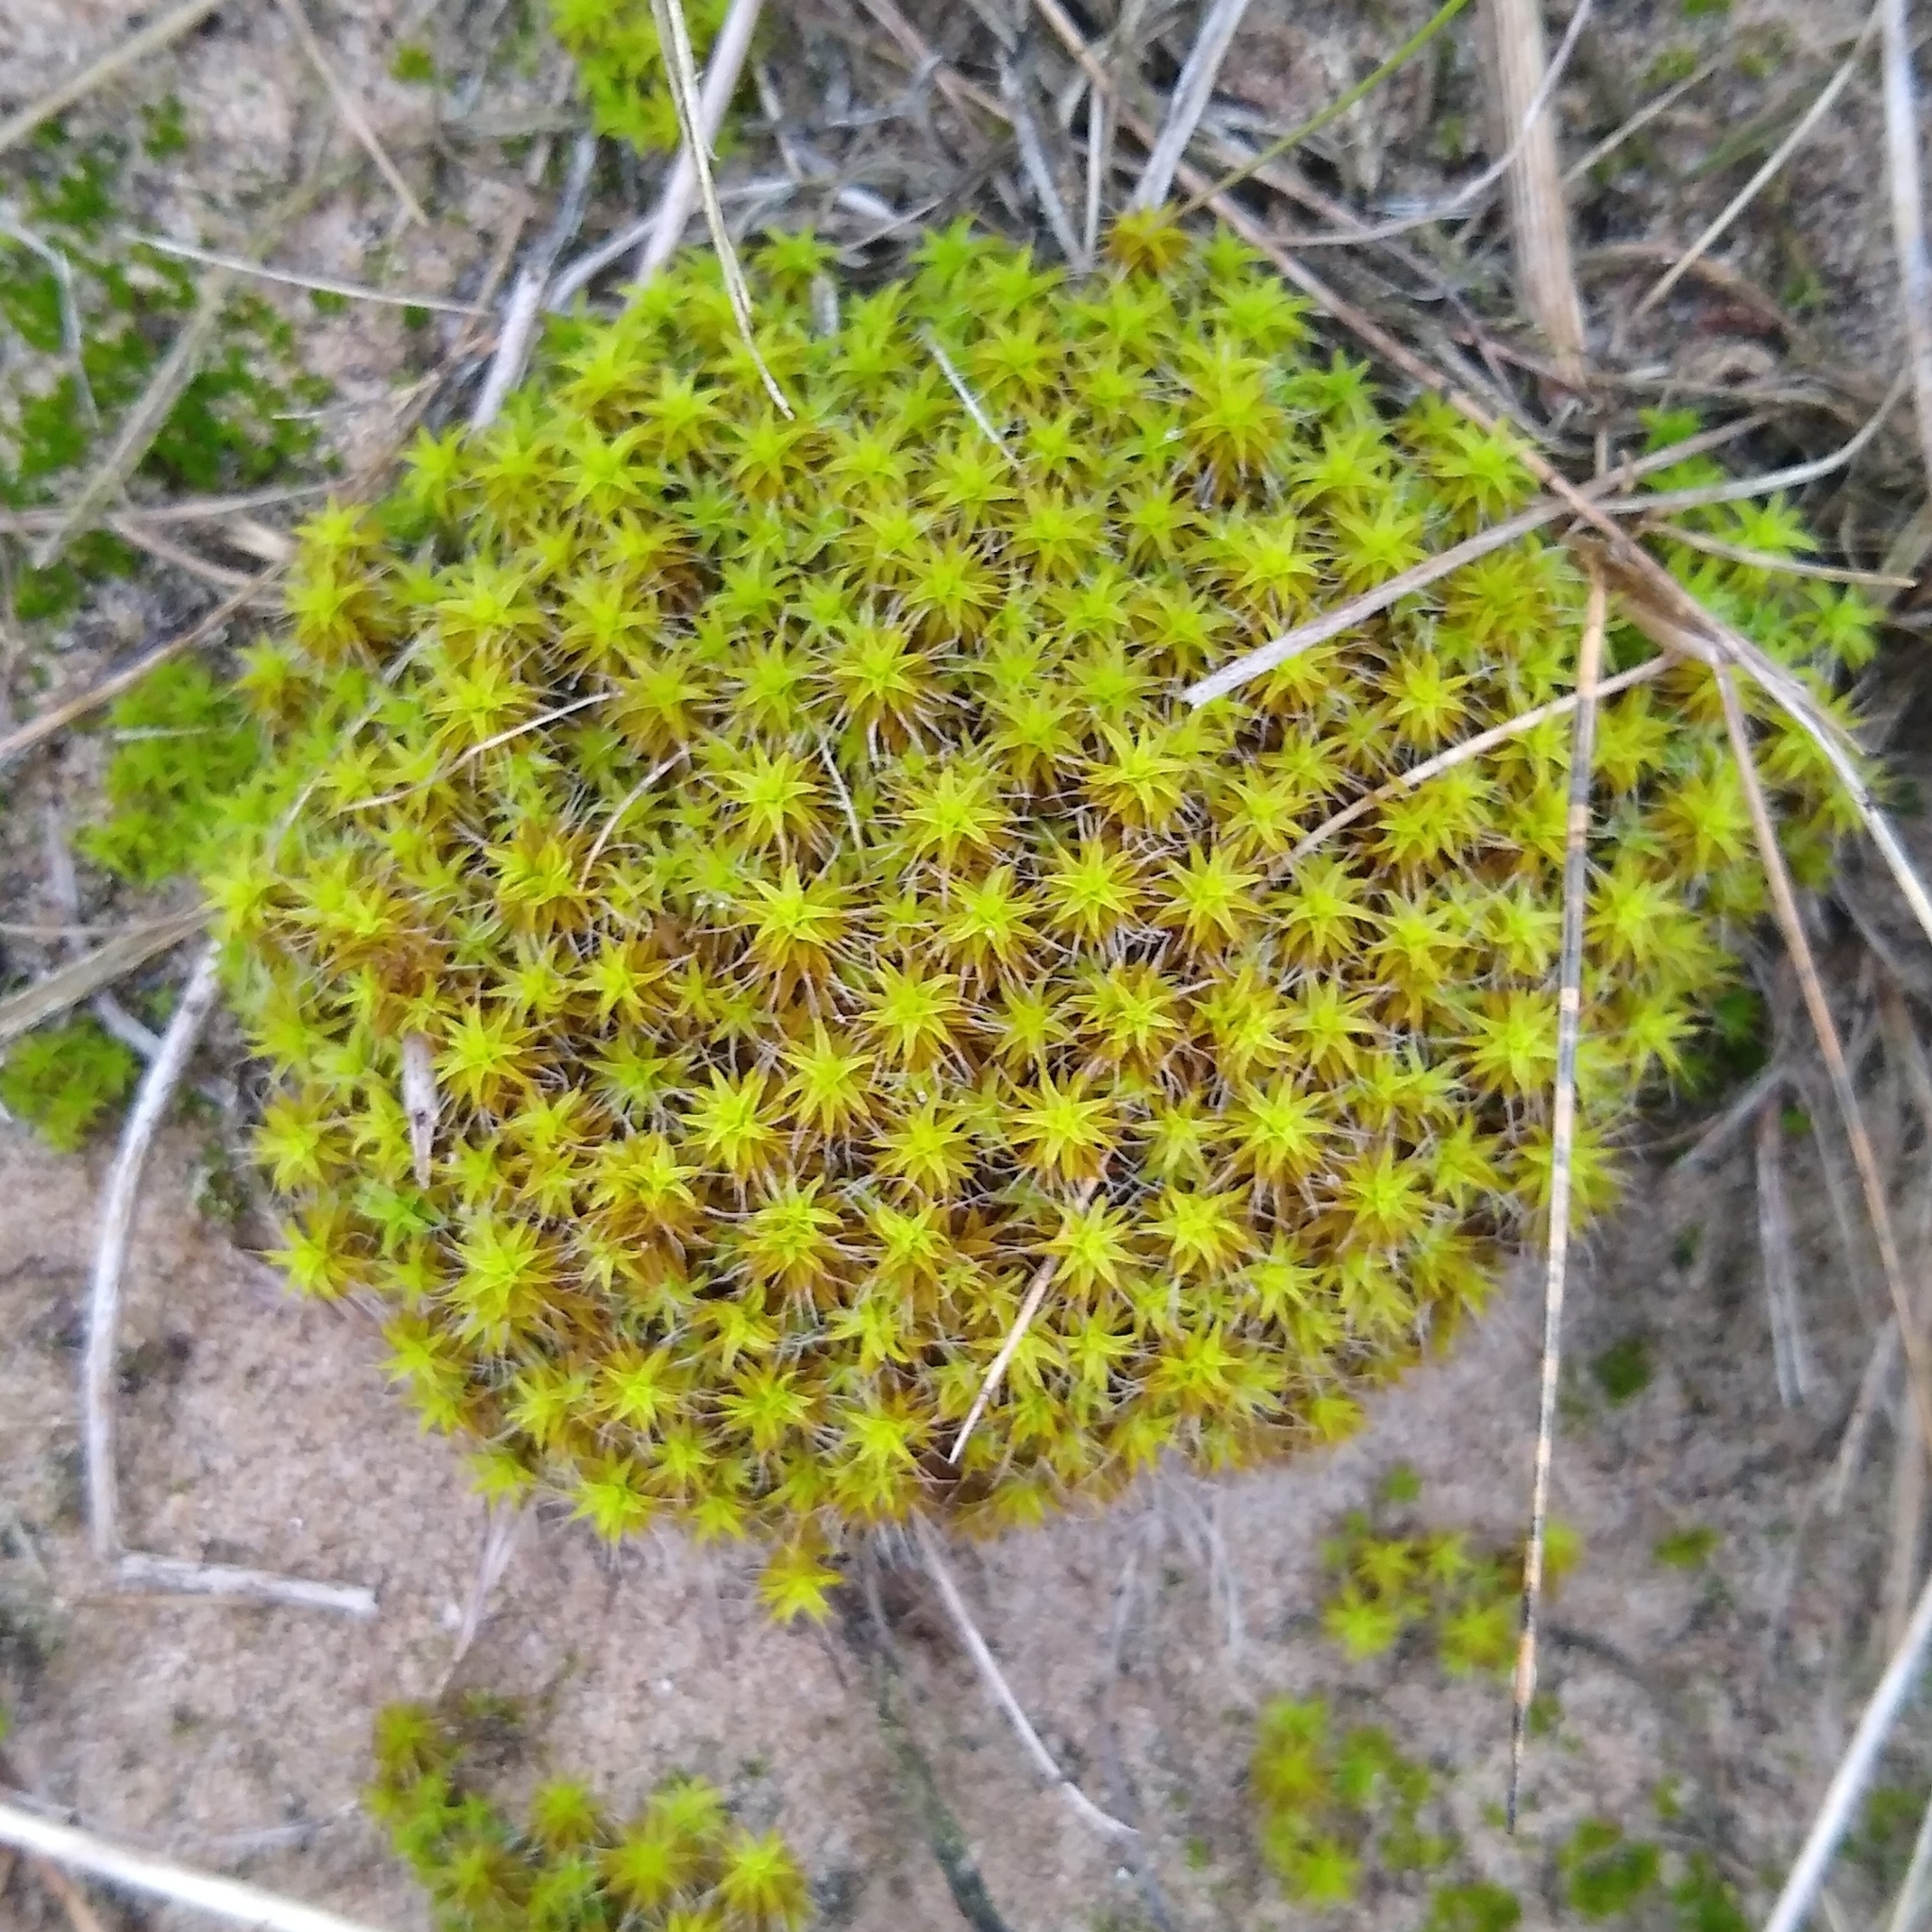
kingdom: Plantae
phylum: Bryophyta
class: Bryopsida
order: Pottiales
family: Pottiaceae
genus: Syntrichia
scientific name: Syntrichia ruralis
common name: Sidewalk screw moss
